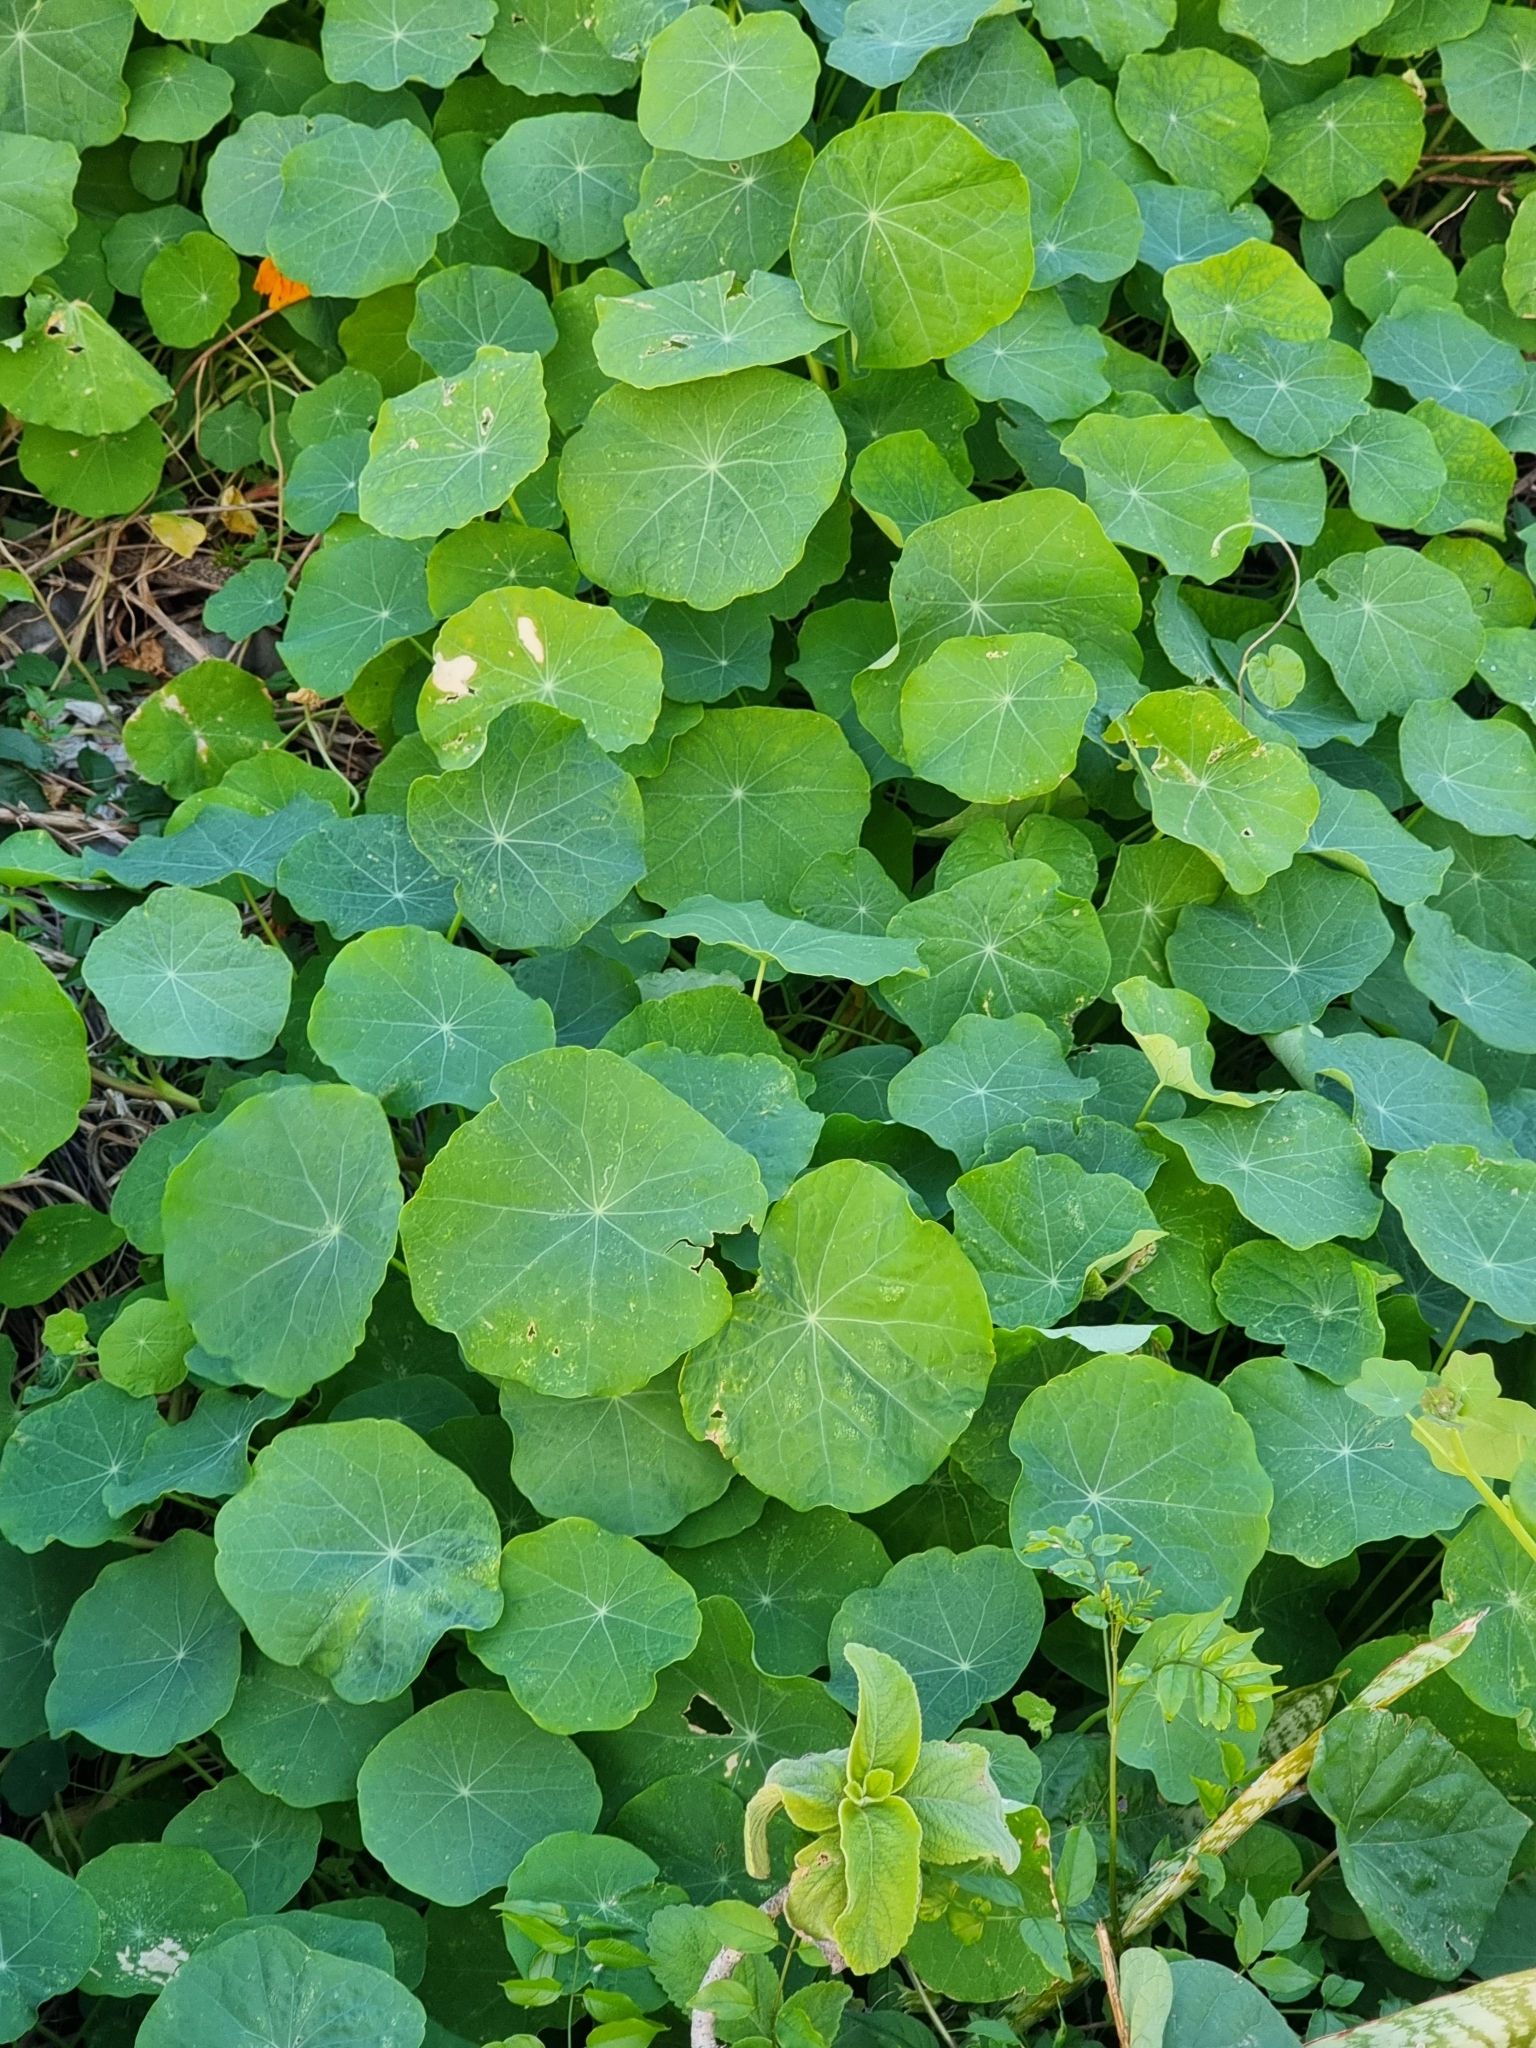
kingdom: Plantae
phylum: Tracheophyta
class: Magnoliopsida
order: Brassicales
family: Tropaeolaceae
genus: Tropaeolum
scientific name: Tropaeolum majus
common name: Nasturtium
